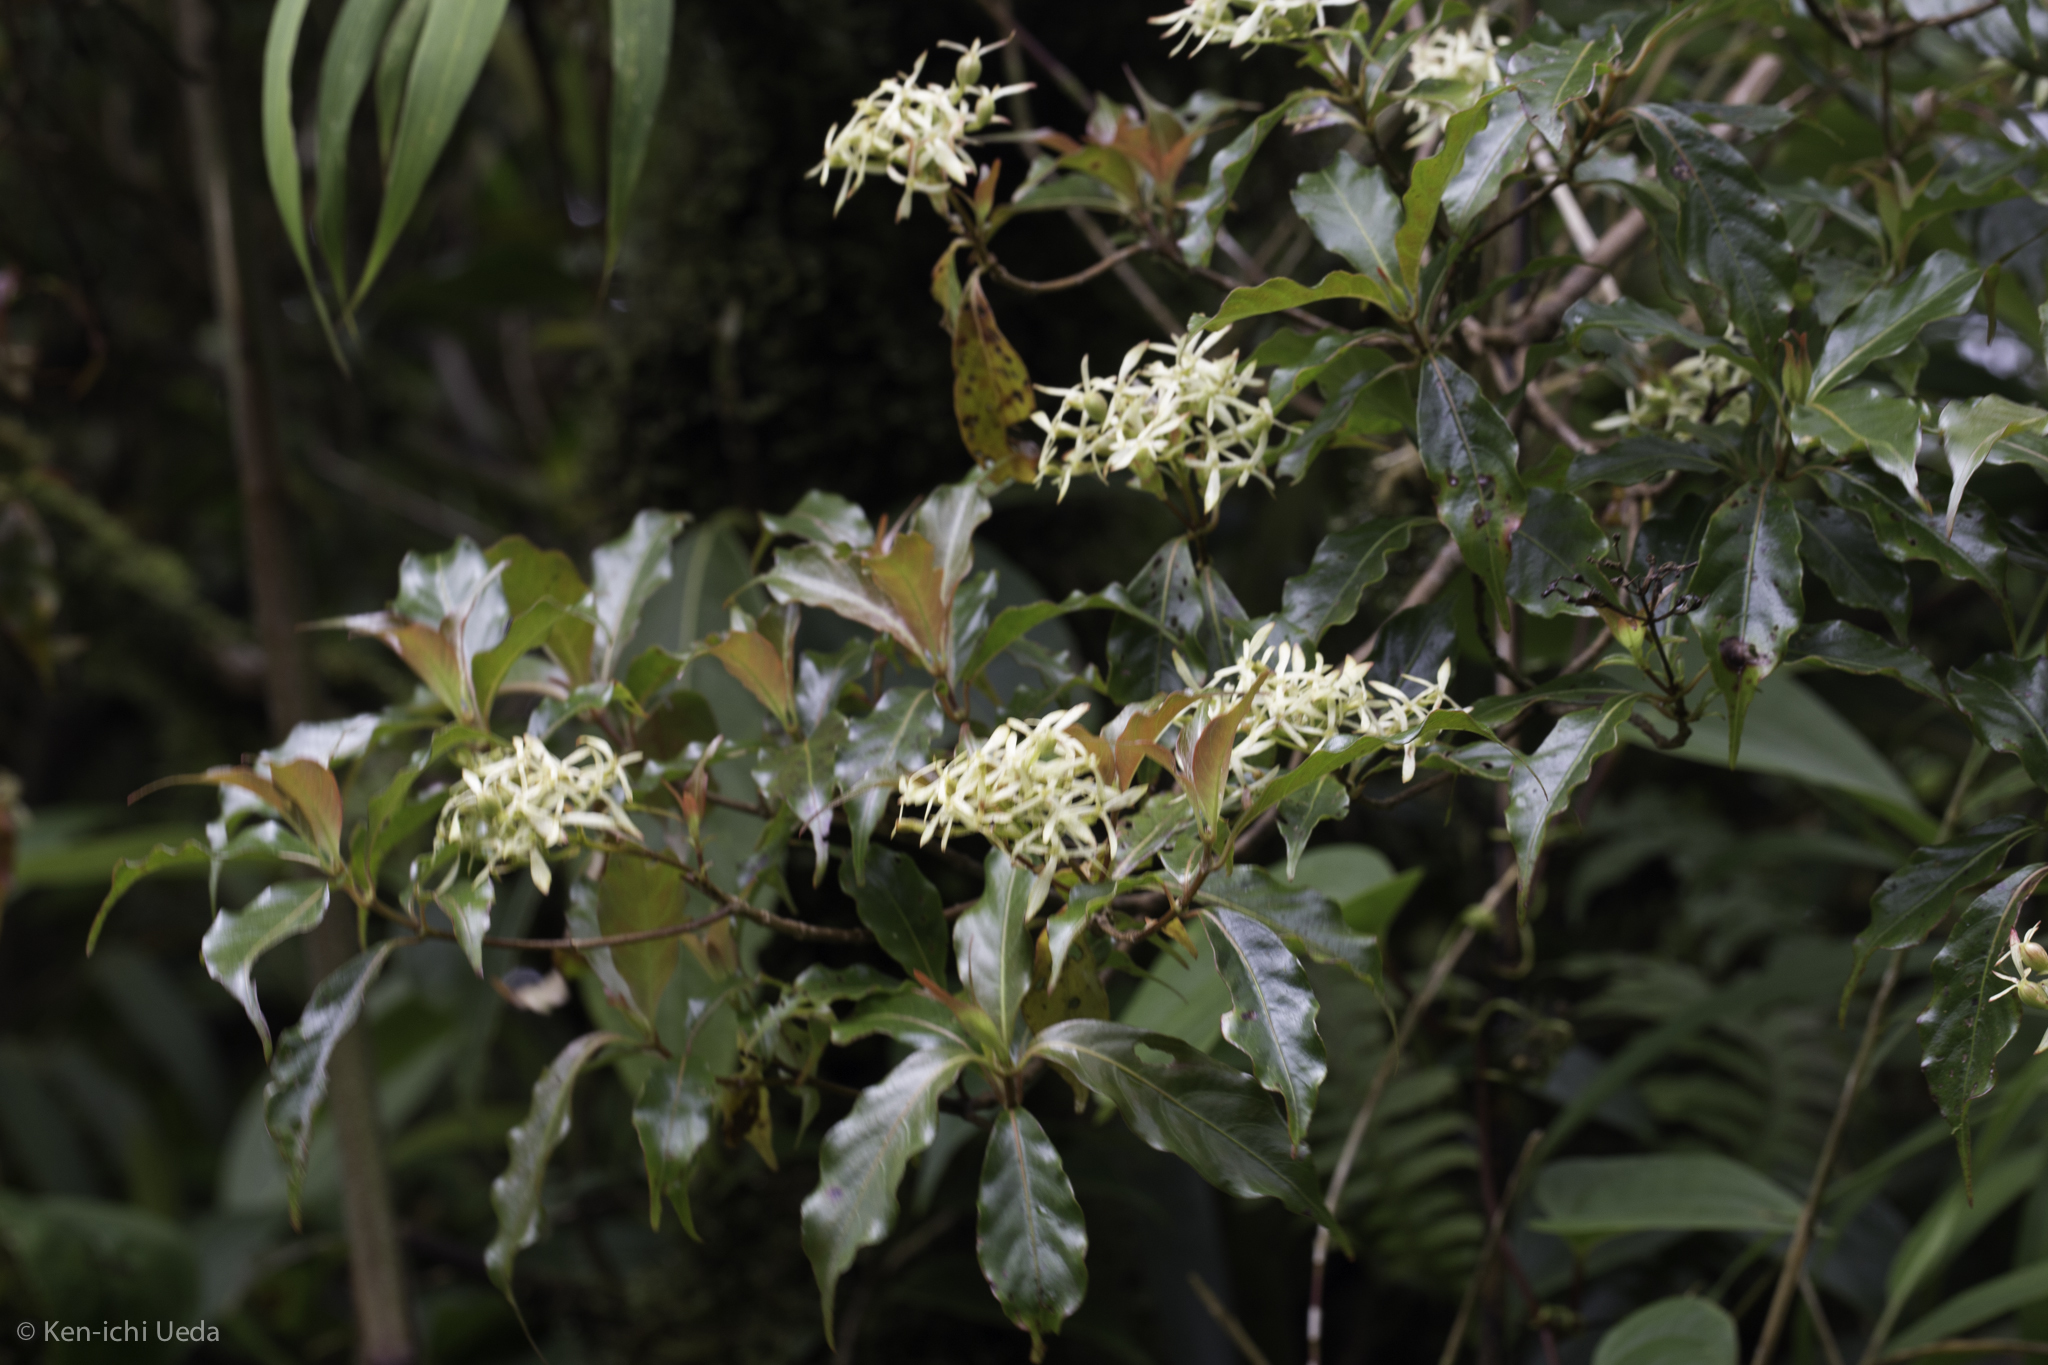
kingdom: Plantae
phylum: Tracheophyta
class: Magnoliopsida
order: Gentianales
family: Rubiaceae
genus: Arachnothryx
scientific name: Arachnothryx monteverdensis
